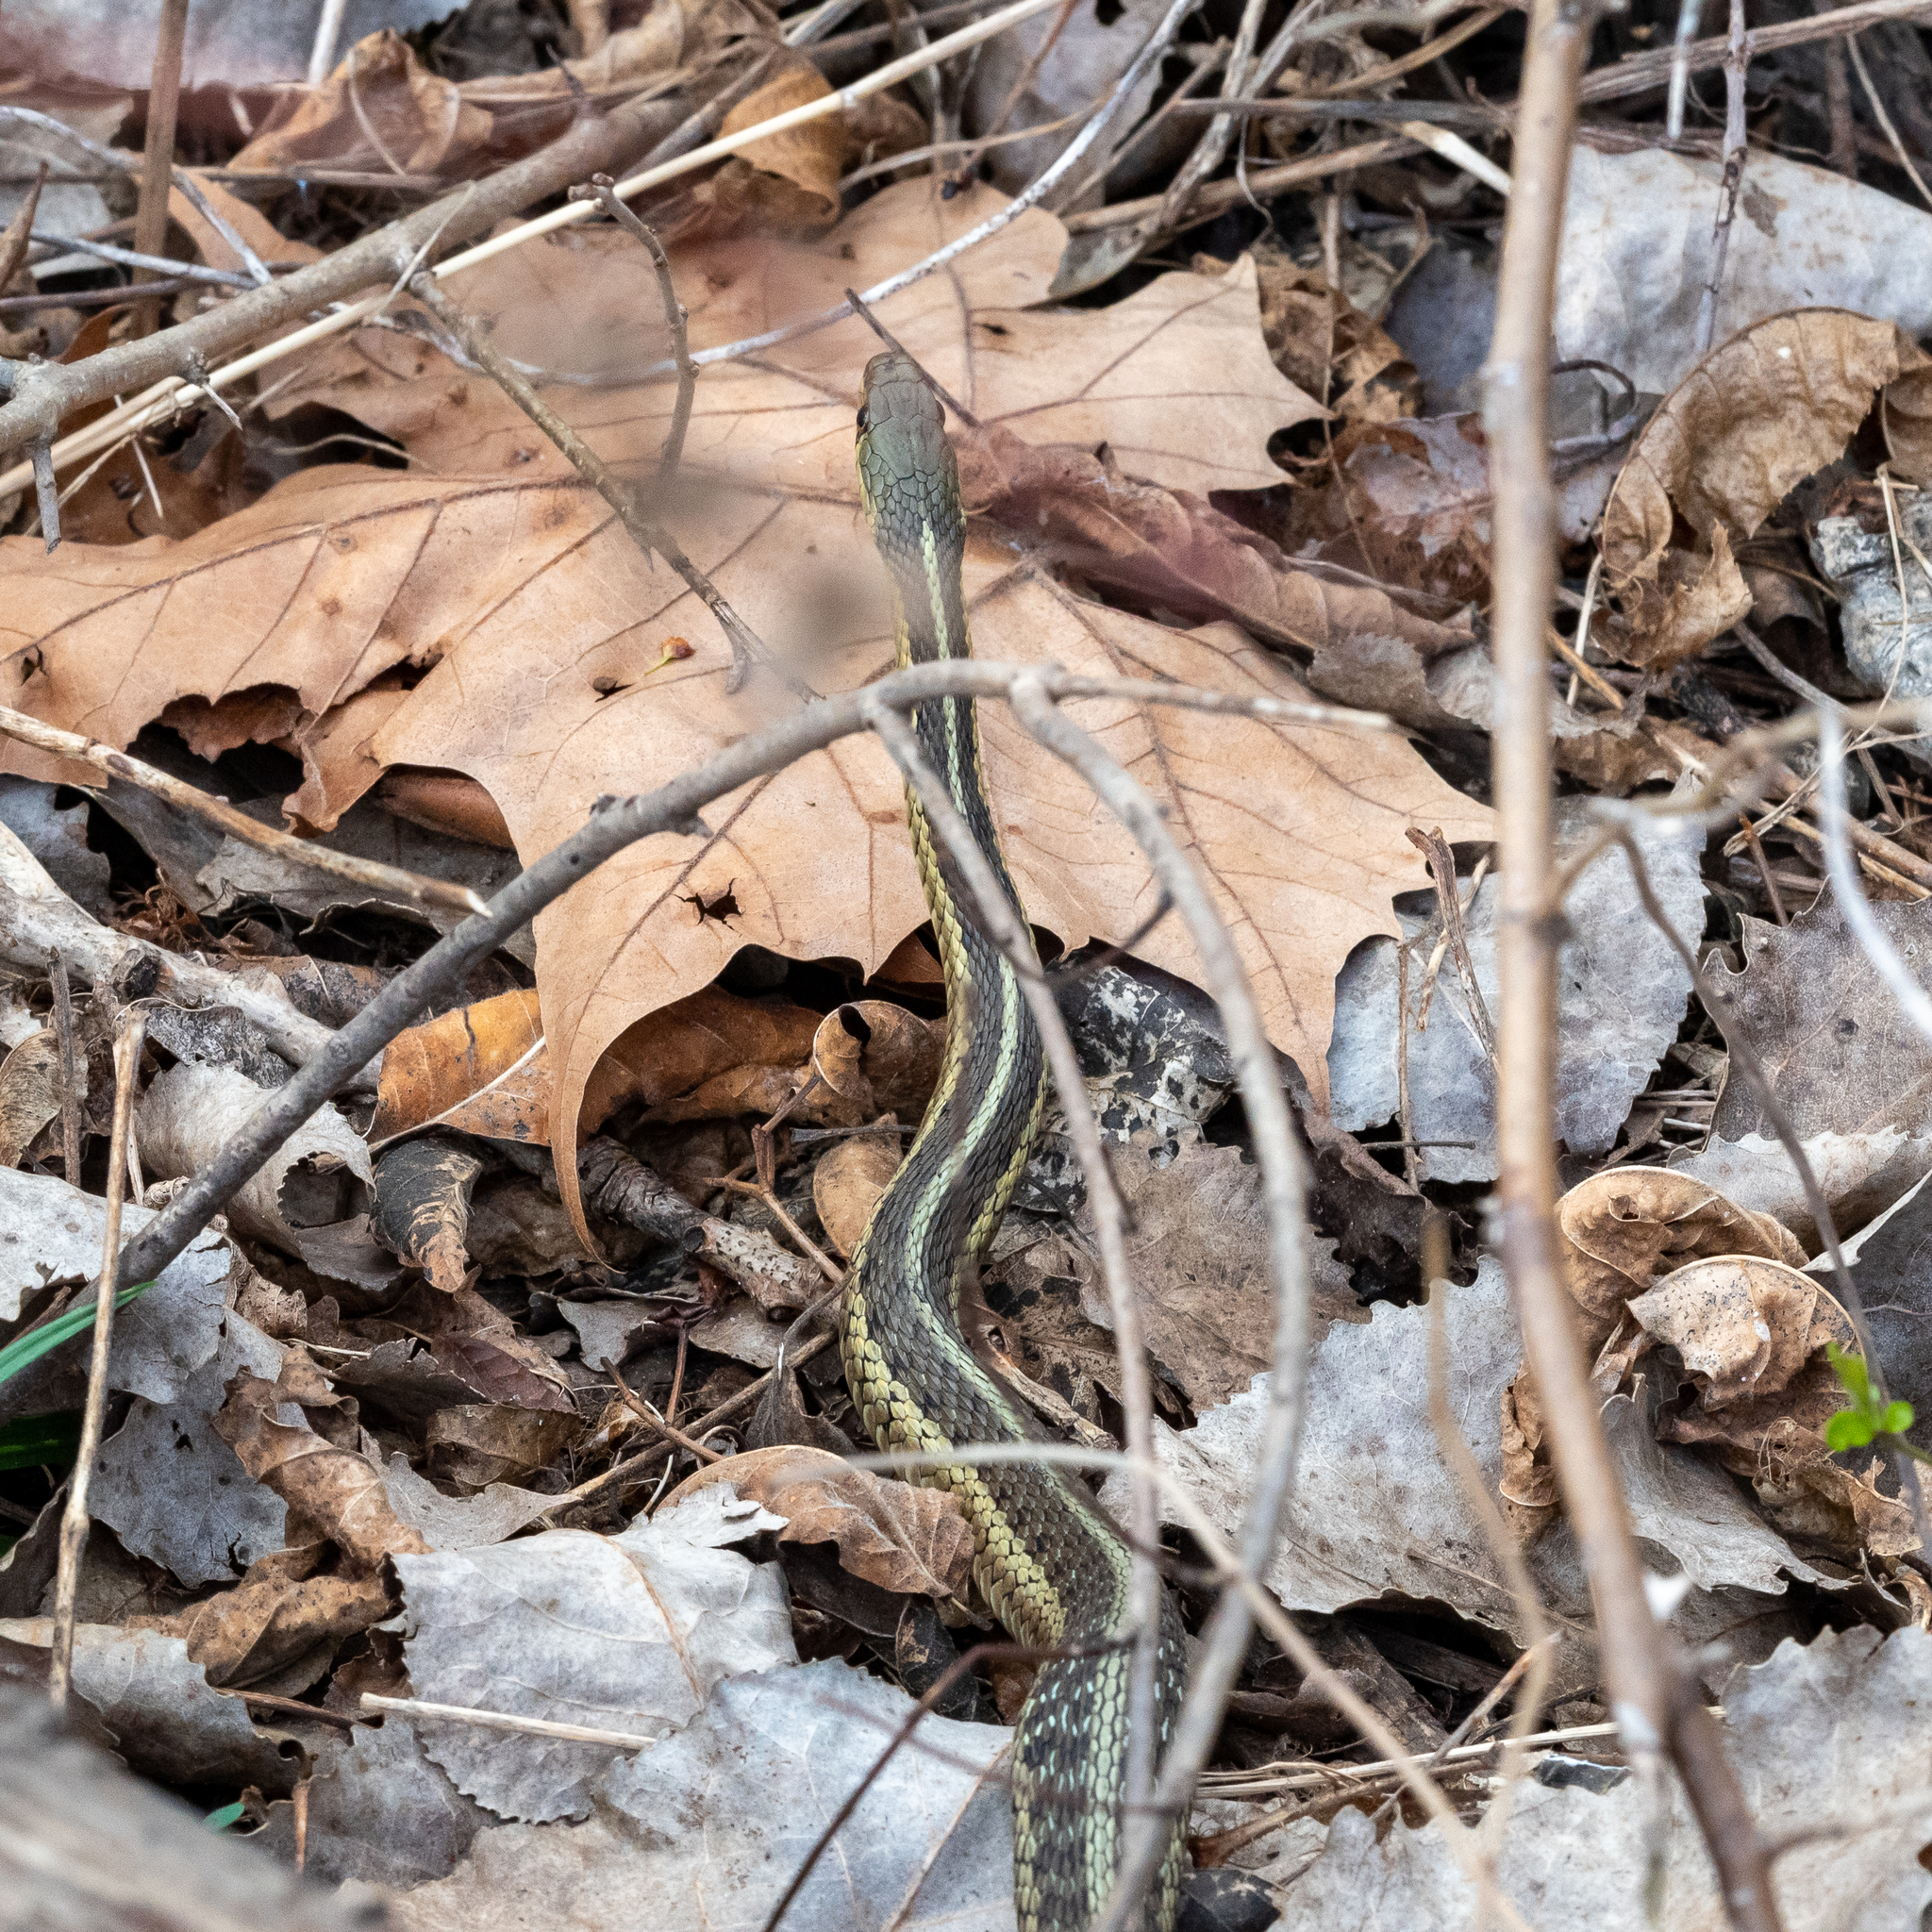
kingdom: Animalia
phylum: Chordata
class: Squamata
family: Colubridae
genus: Thamnophis
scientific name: Thamnophis sirtalis
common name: Common garter snake
